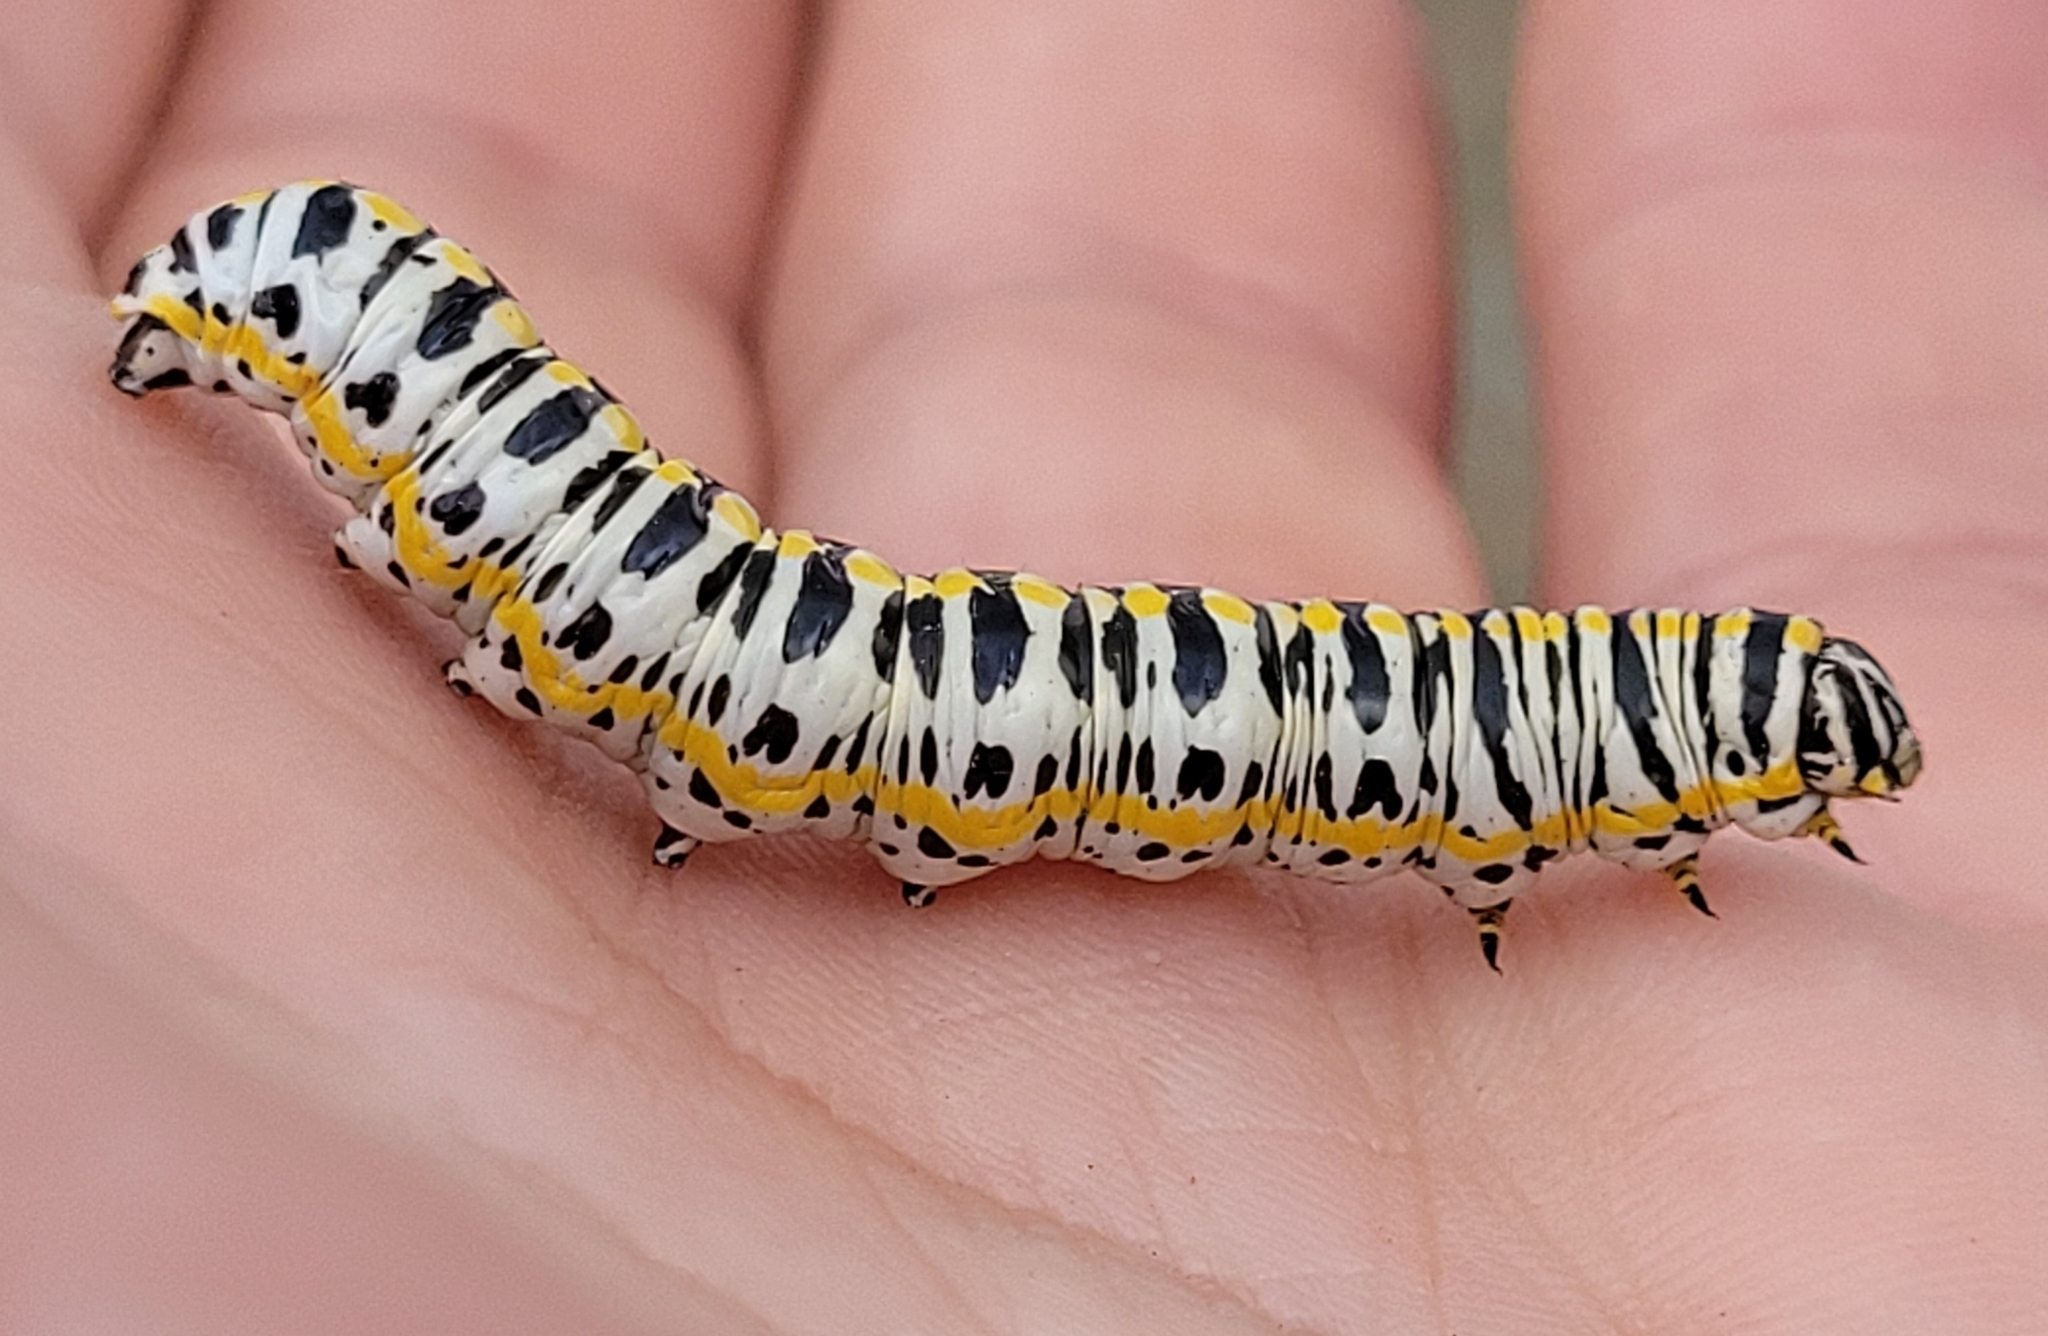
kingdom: Animalia
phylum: Arthropoda
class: Insecta
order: Lepidoptera
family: Noctuidae
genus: Cucullia
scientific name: Cucullia speyeri
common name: Speyer's cucullia moth
